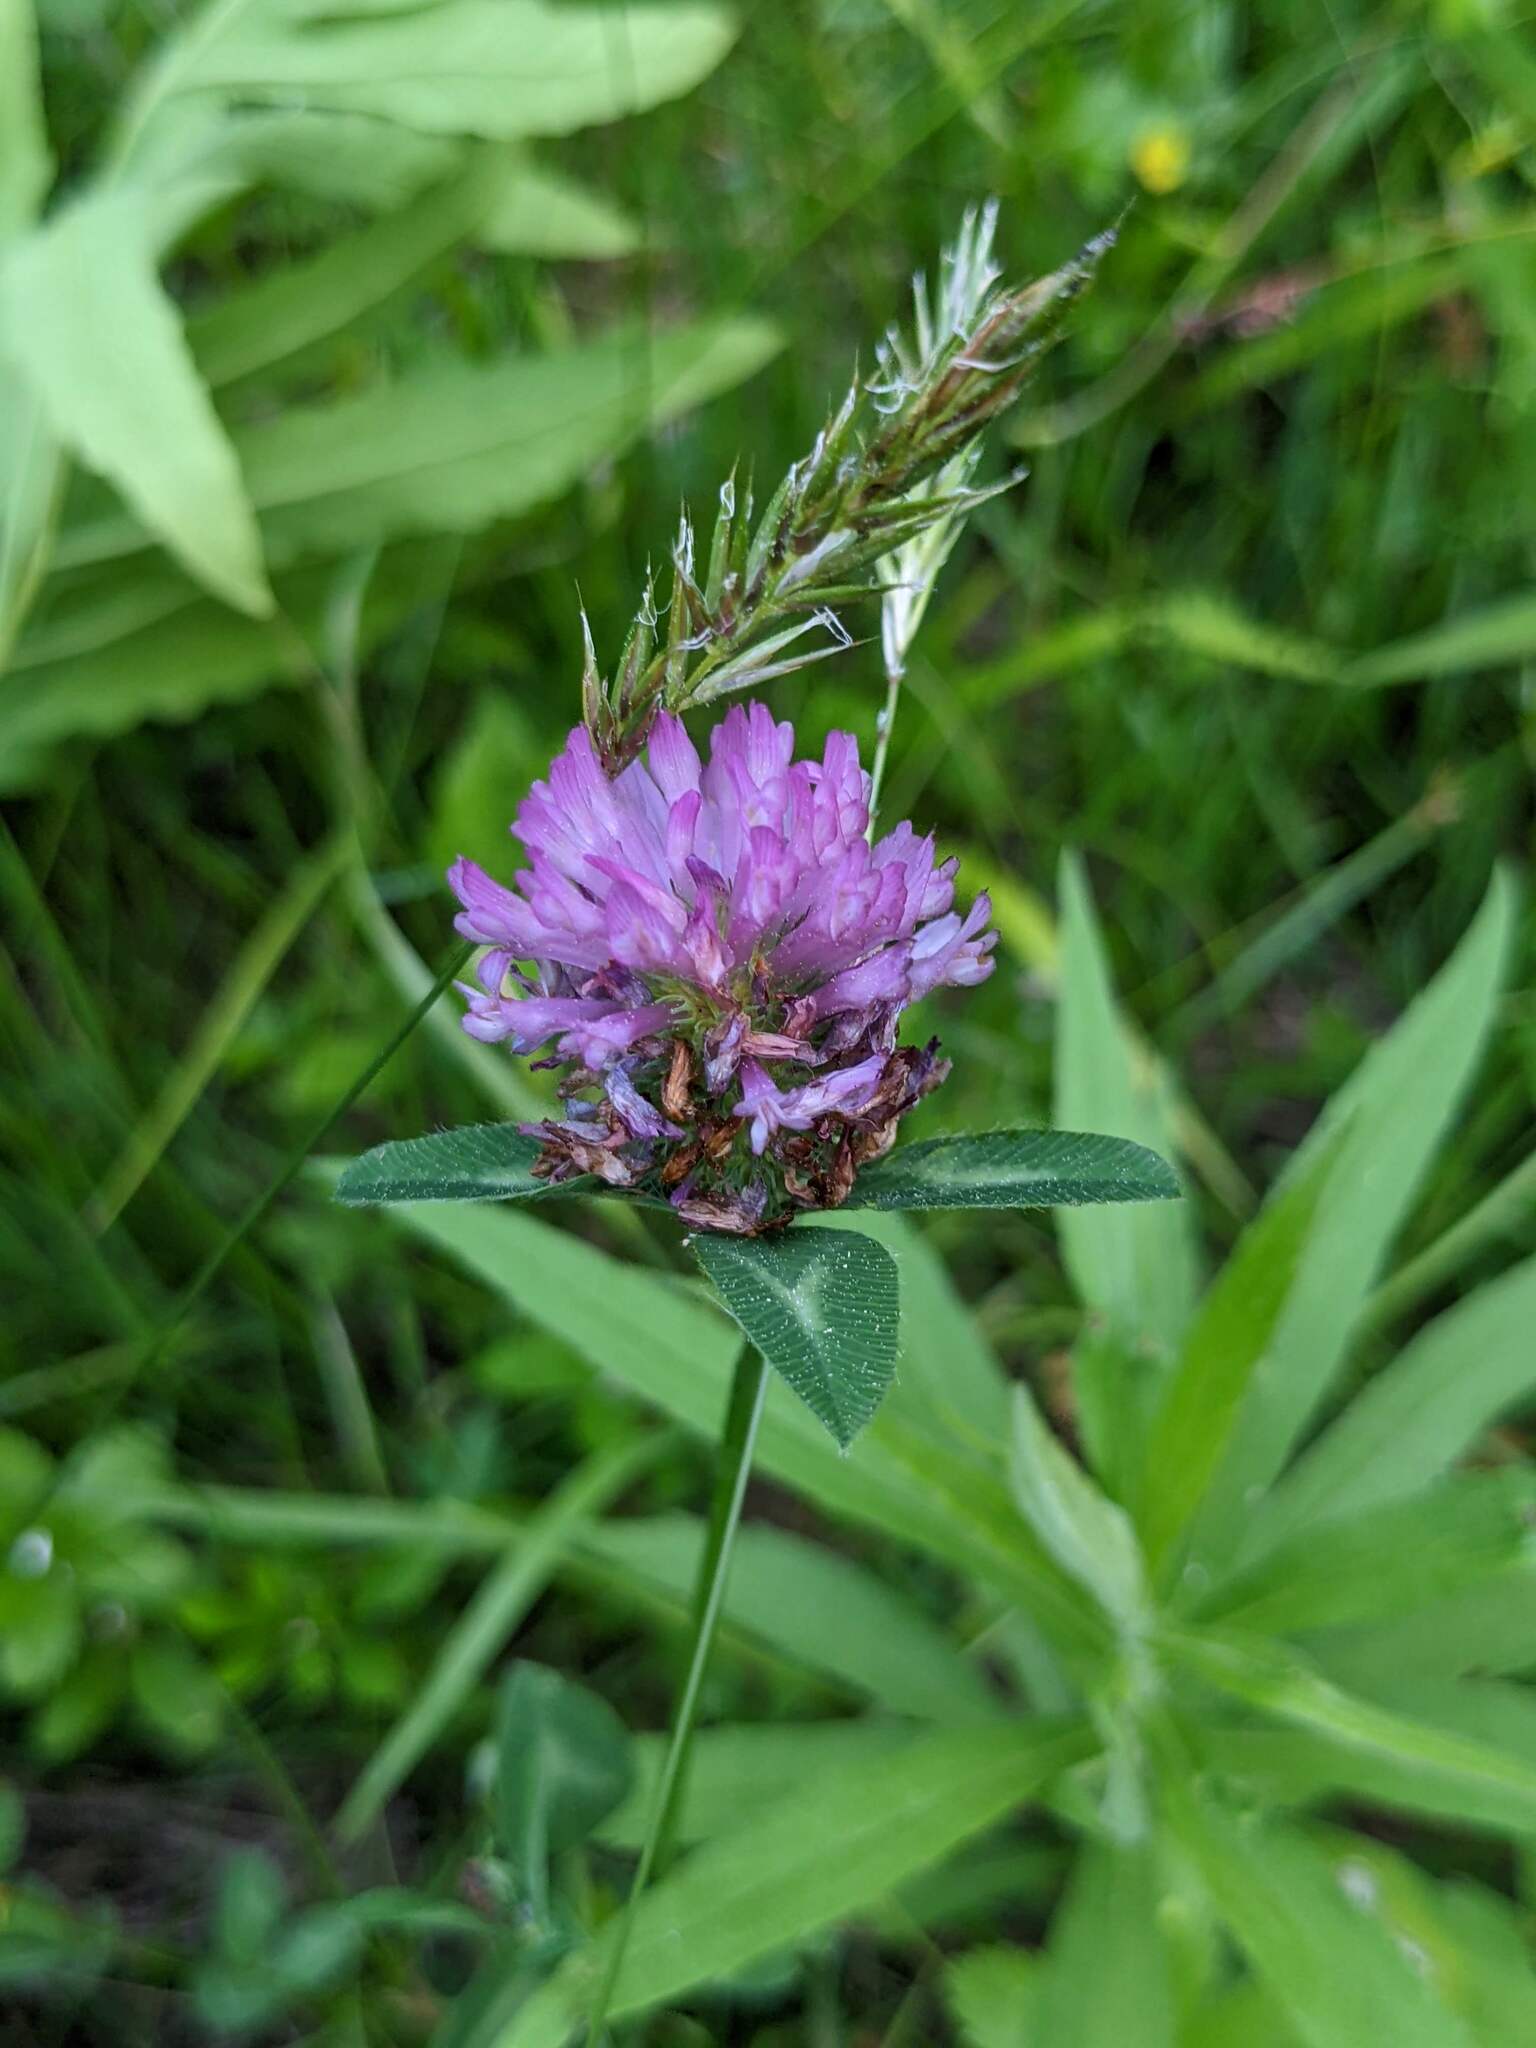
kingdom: Plantae
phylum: Tracheophyta
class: Magnoliopsida
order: Fabales
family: Fabaceae
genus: Trifolium
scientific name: Trifolium pratense
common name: Red clover
